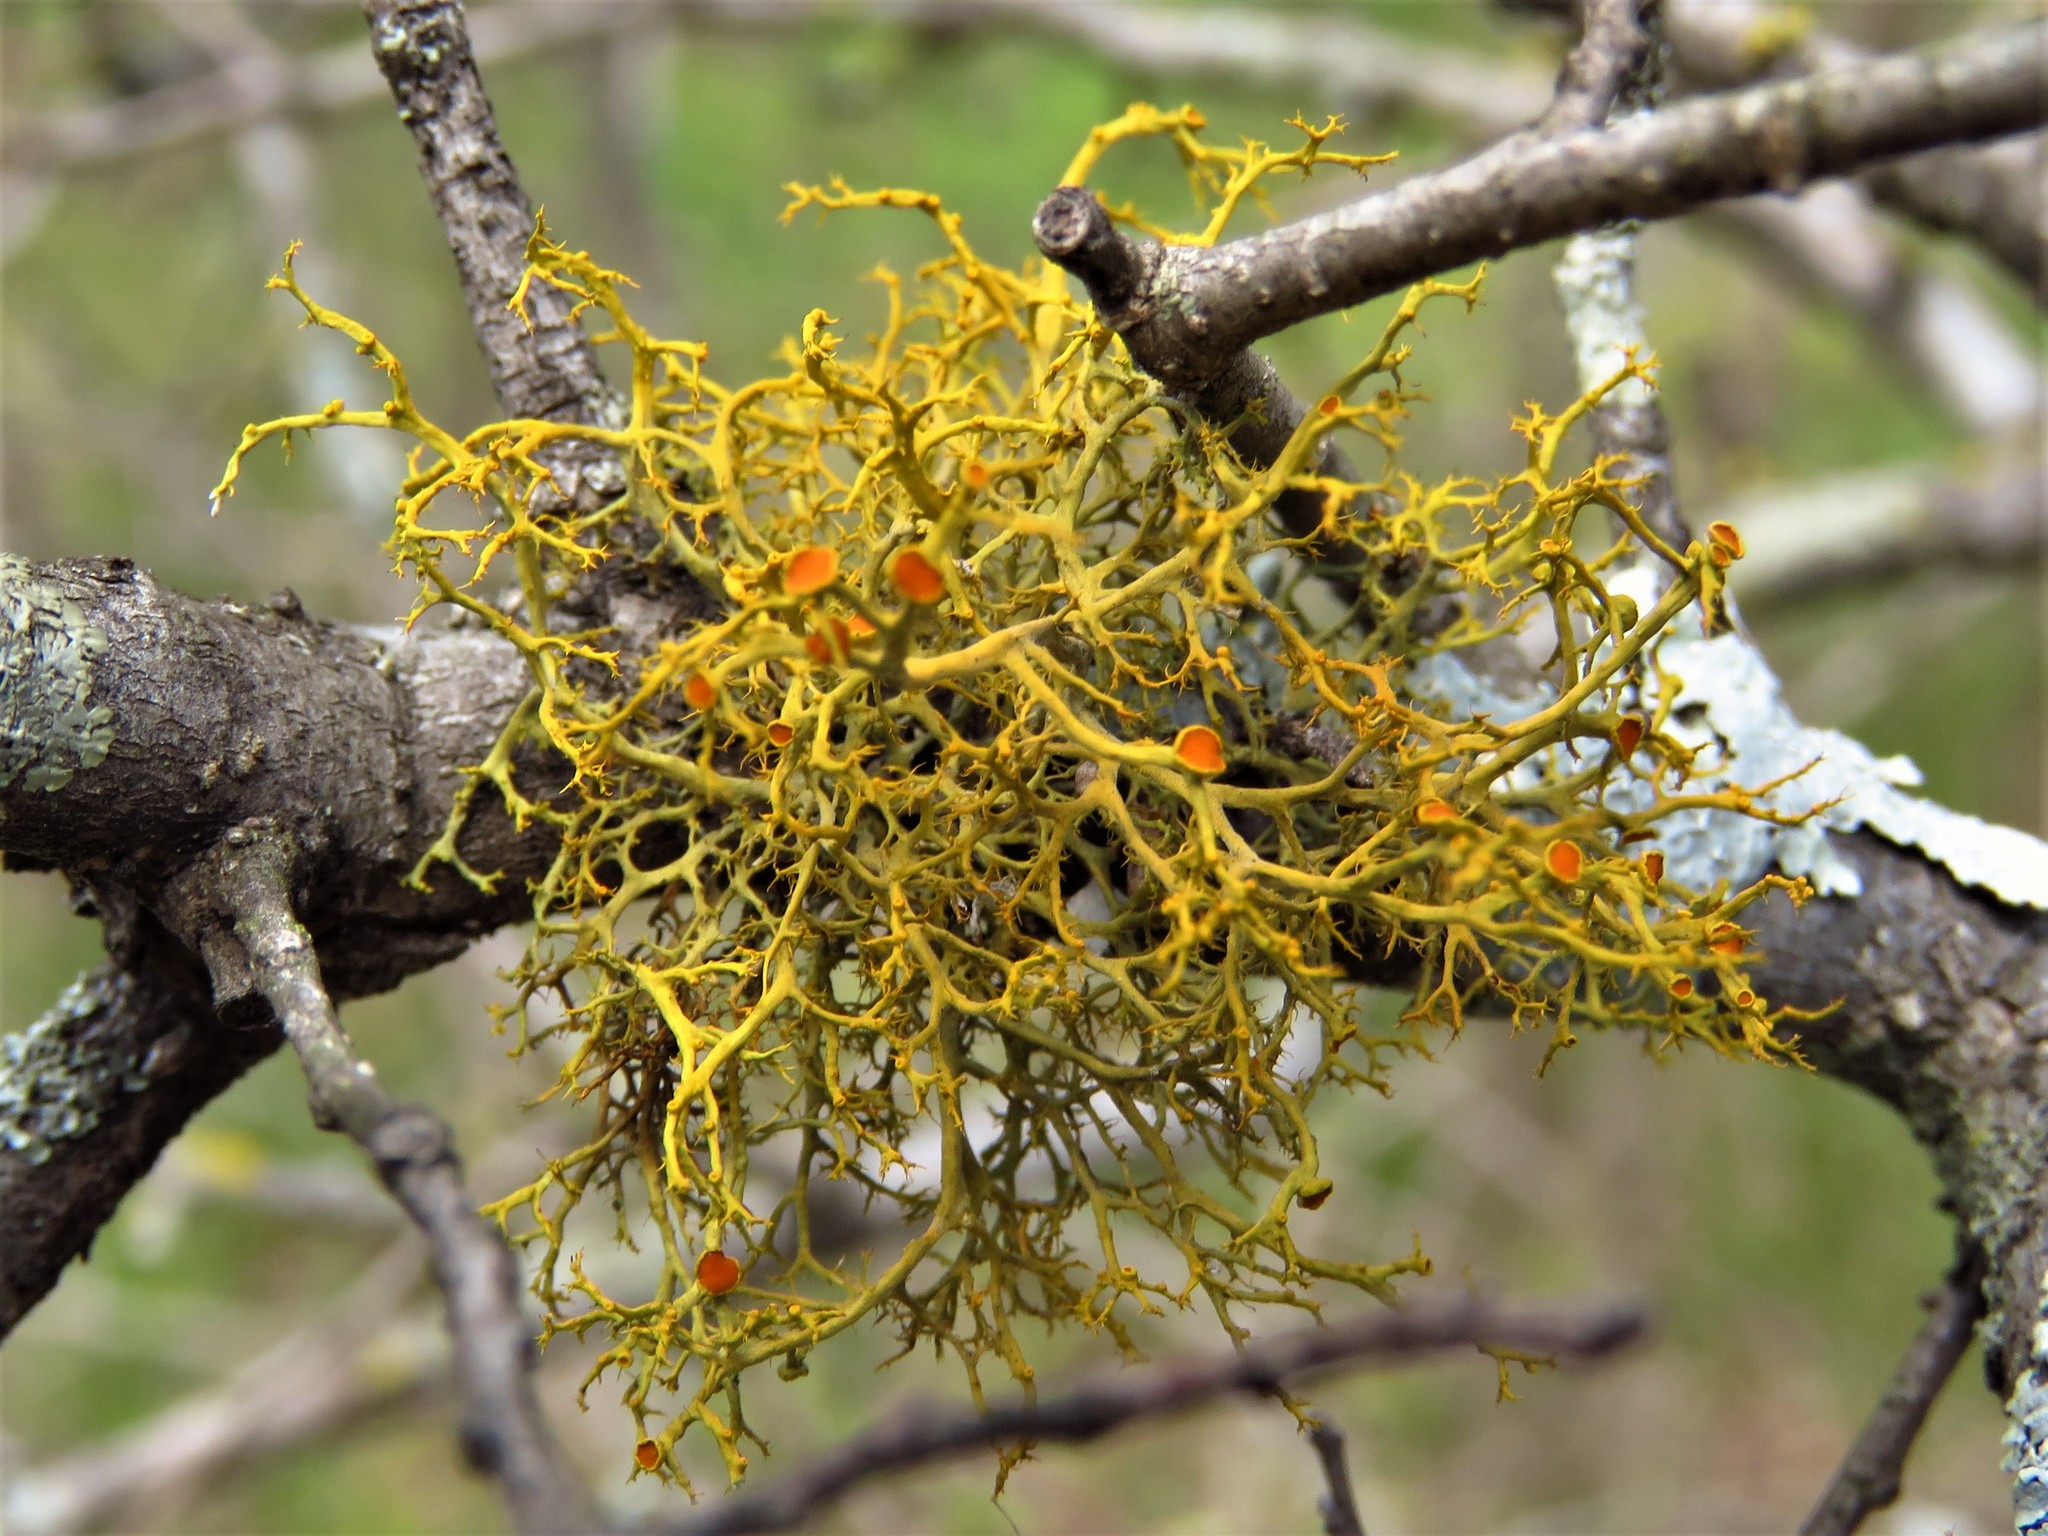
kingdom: Fungi
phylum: Ascomycota
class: Lecanoromycetes
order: Teloschistales
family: Teloschistaceae
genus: Teloschistes
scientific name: Teloschistes exilis
